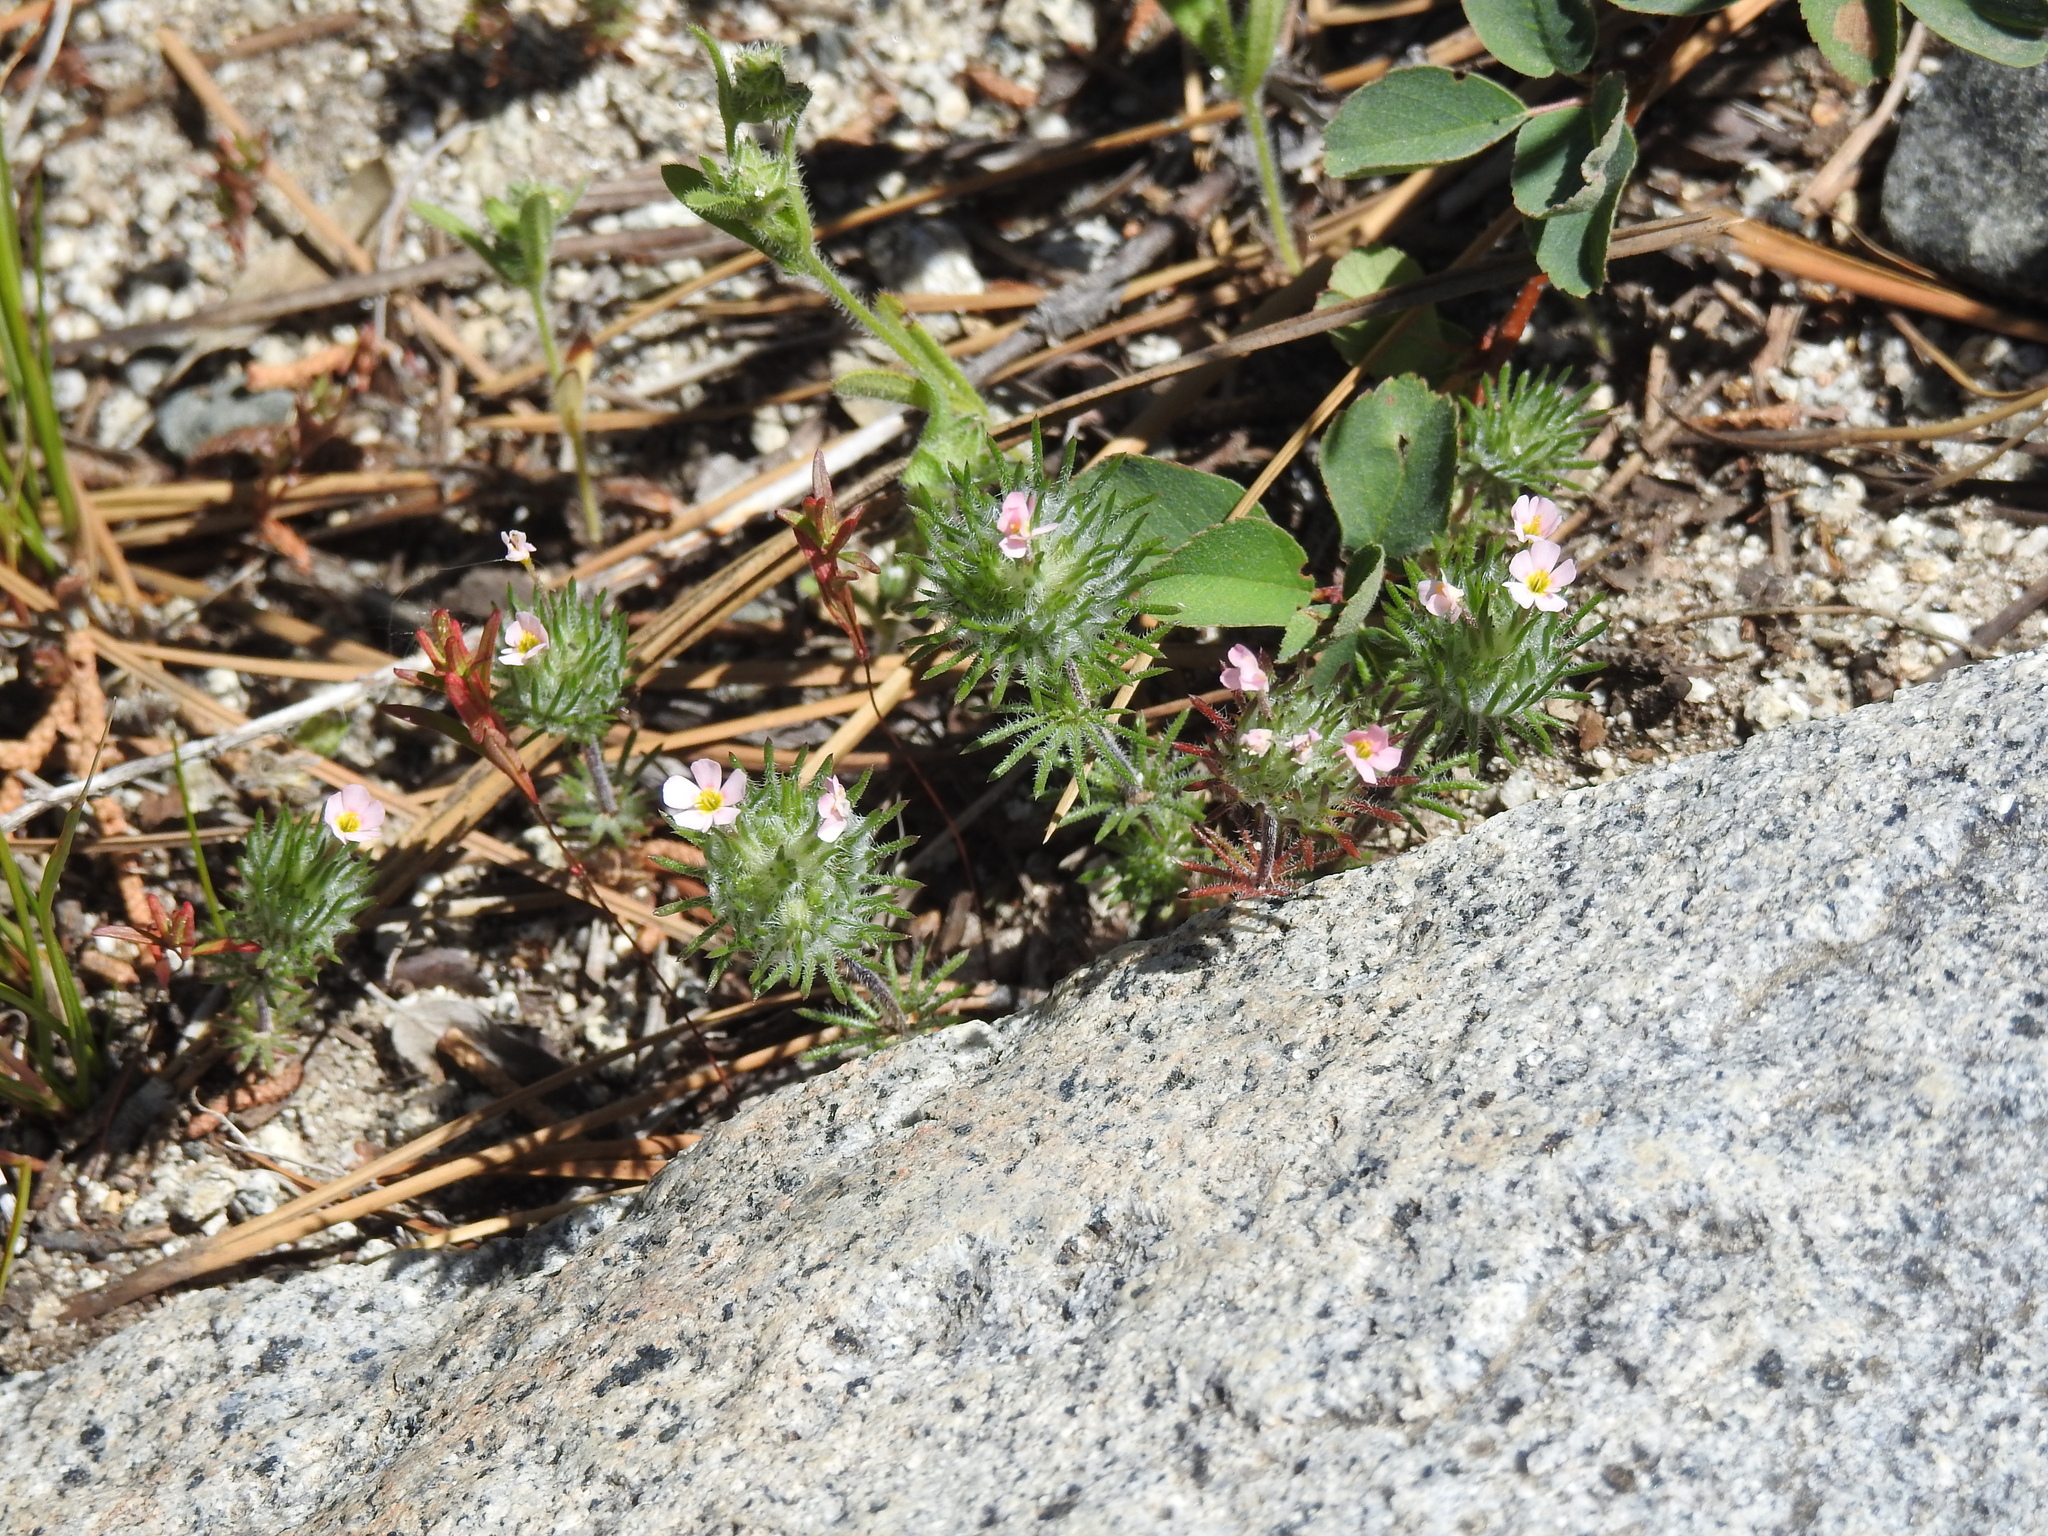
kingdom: Plantae
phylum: Tracheophyta
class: Magnoliopsida
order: Ericales
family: Polemoniaceae
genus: Leptosiphon
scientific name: Leptosiphon ciliatus
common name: Whiskerbrush
